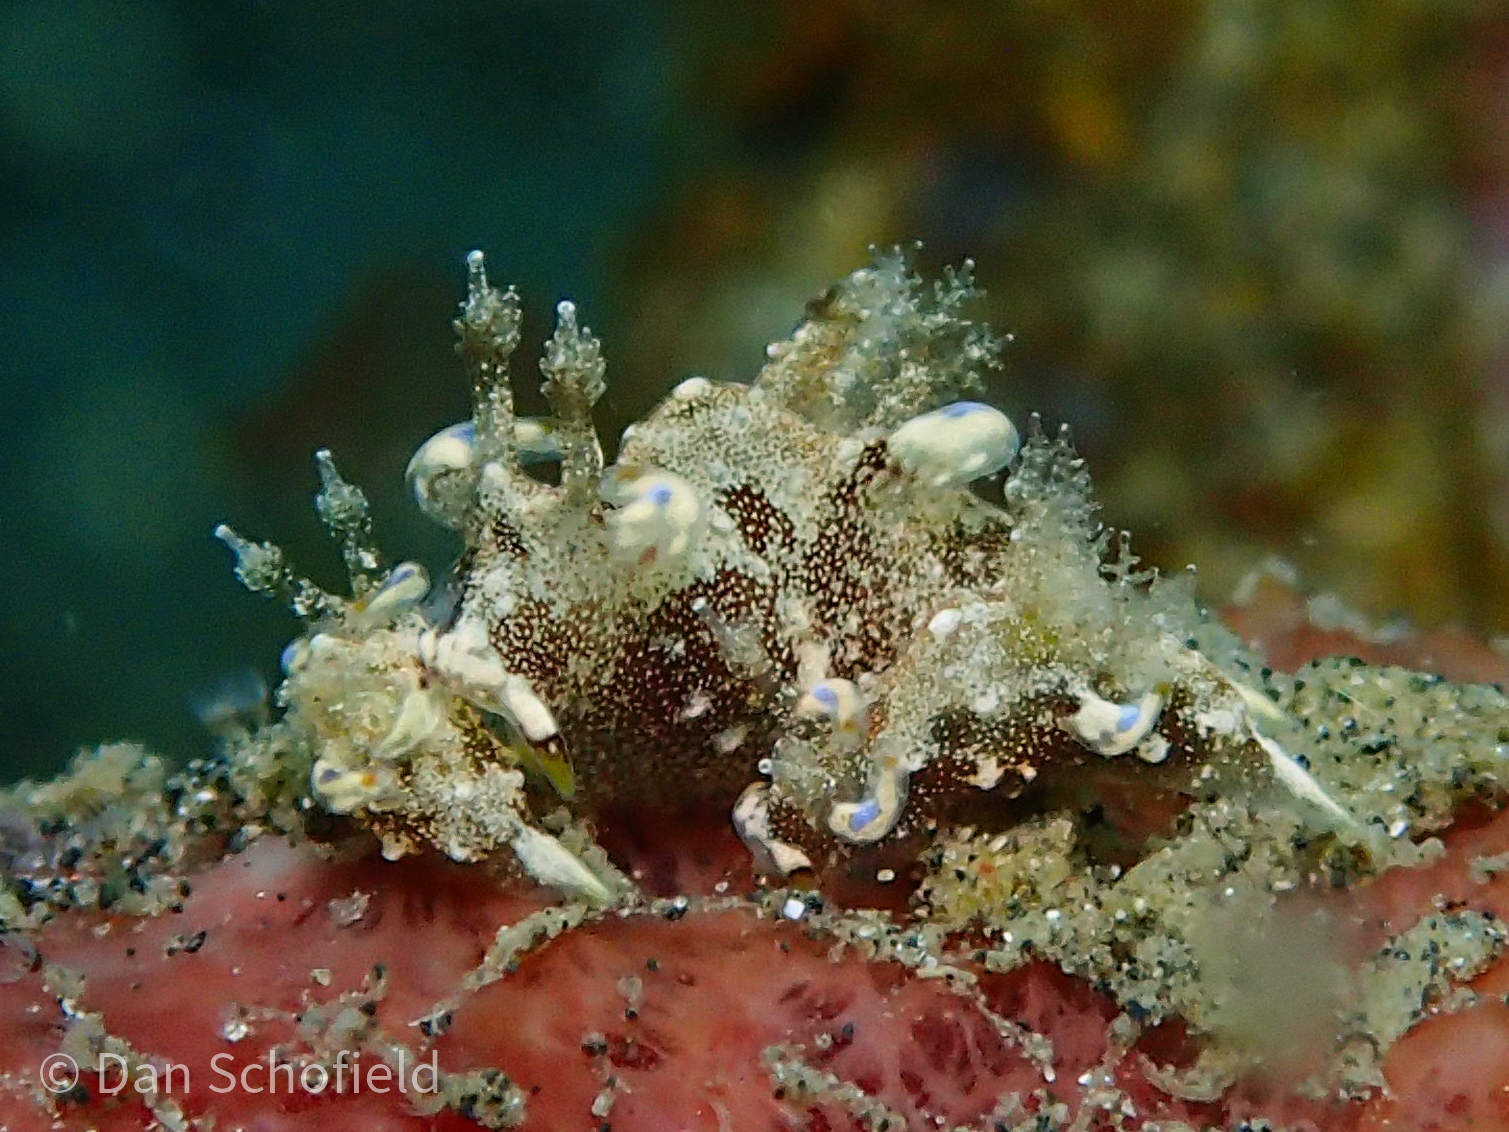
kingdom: Animalia
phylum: Mollusca
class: Gastropoda
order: Nudibranchia
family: Goniodorididae
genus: Trapania
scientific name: Trapania palmula
